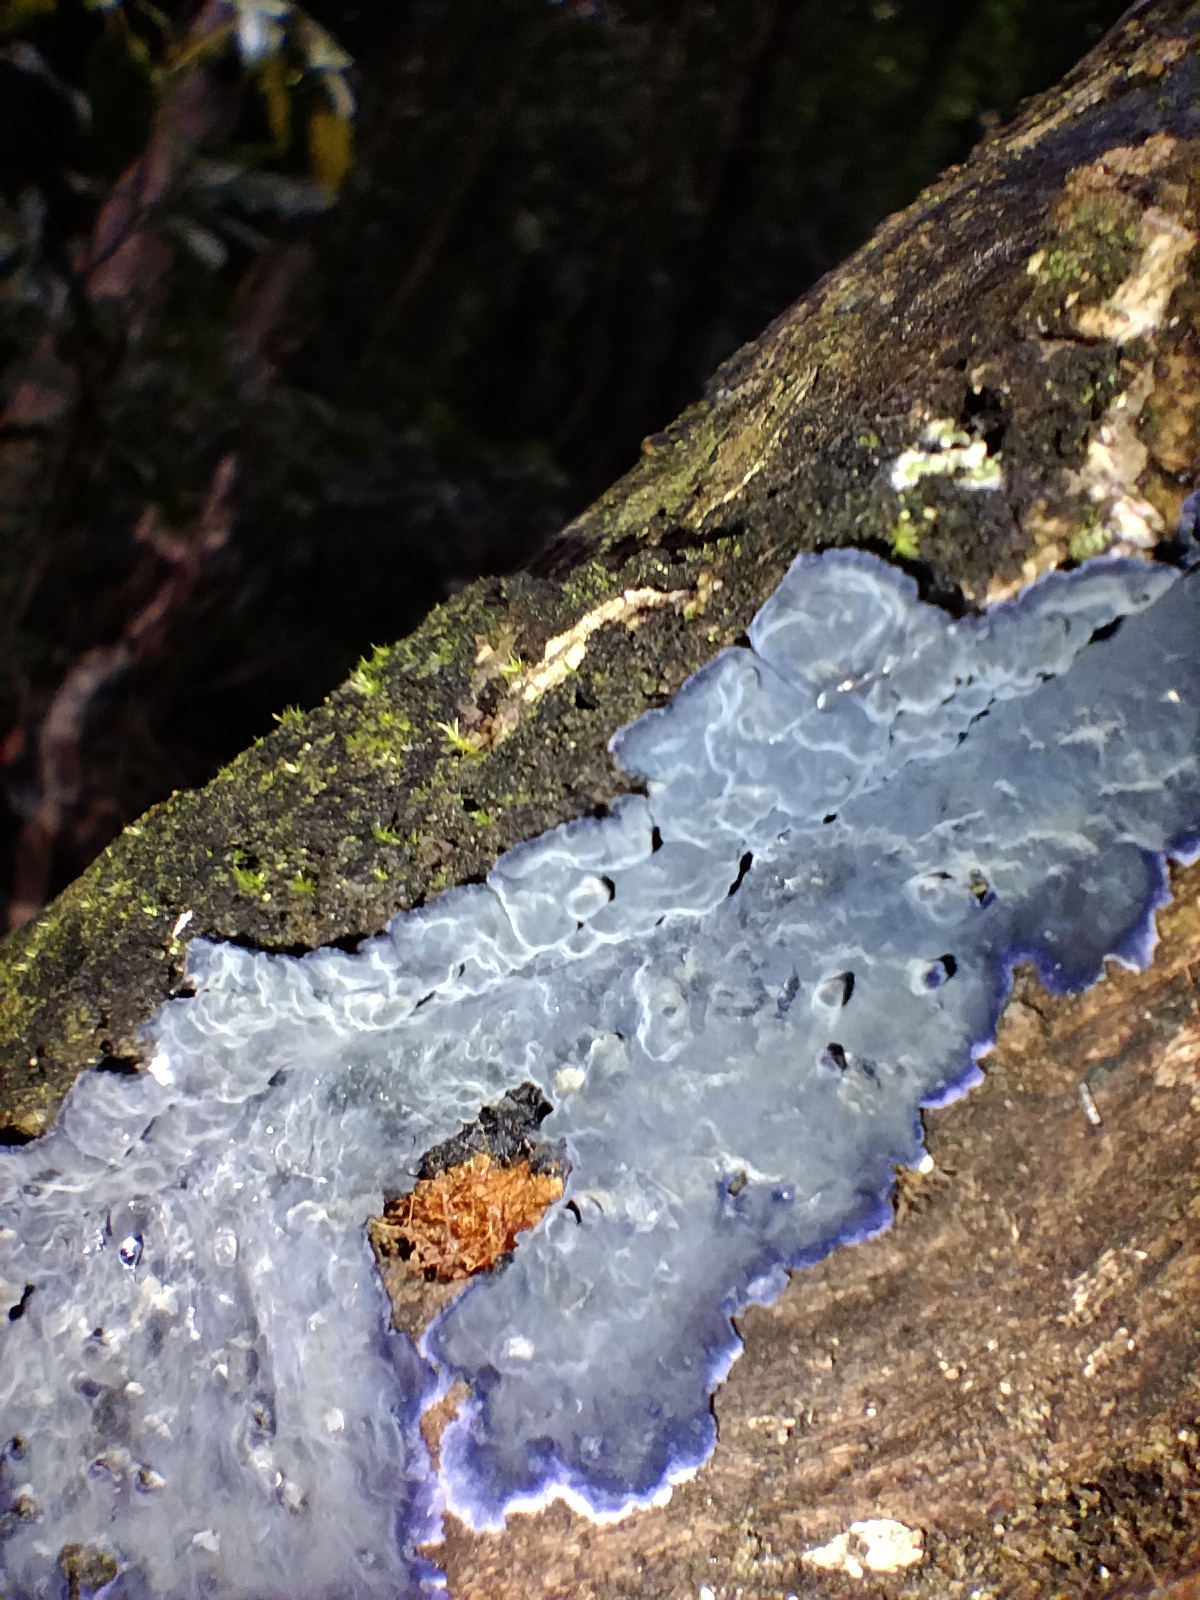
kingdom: Fungi
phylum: Basidiomycota
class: Agaricomycetes
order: Polyporales
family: Phanerochaetaceae
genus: Terana
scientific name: Terana coerulea
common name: Cobalt crust
